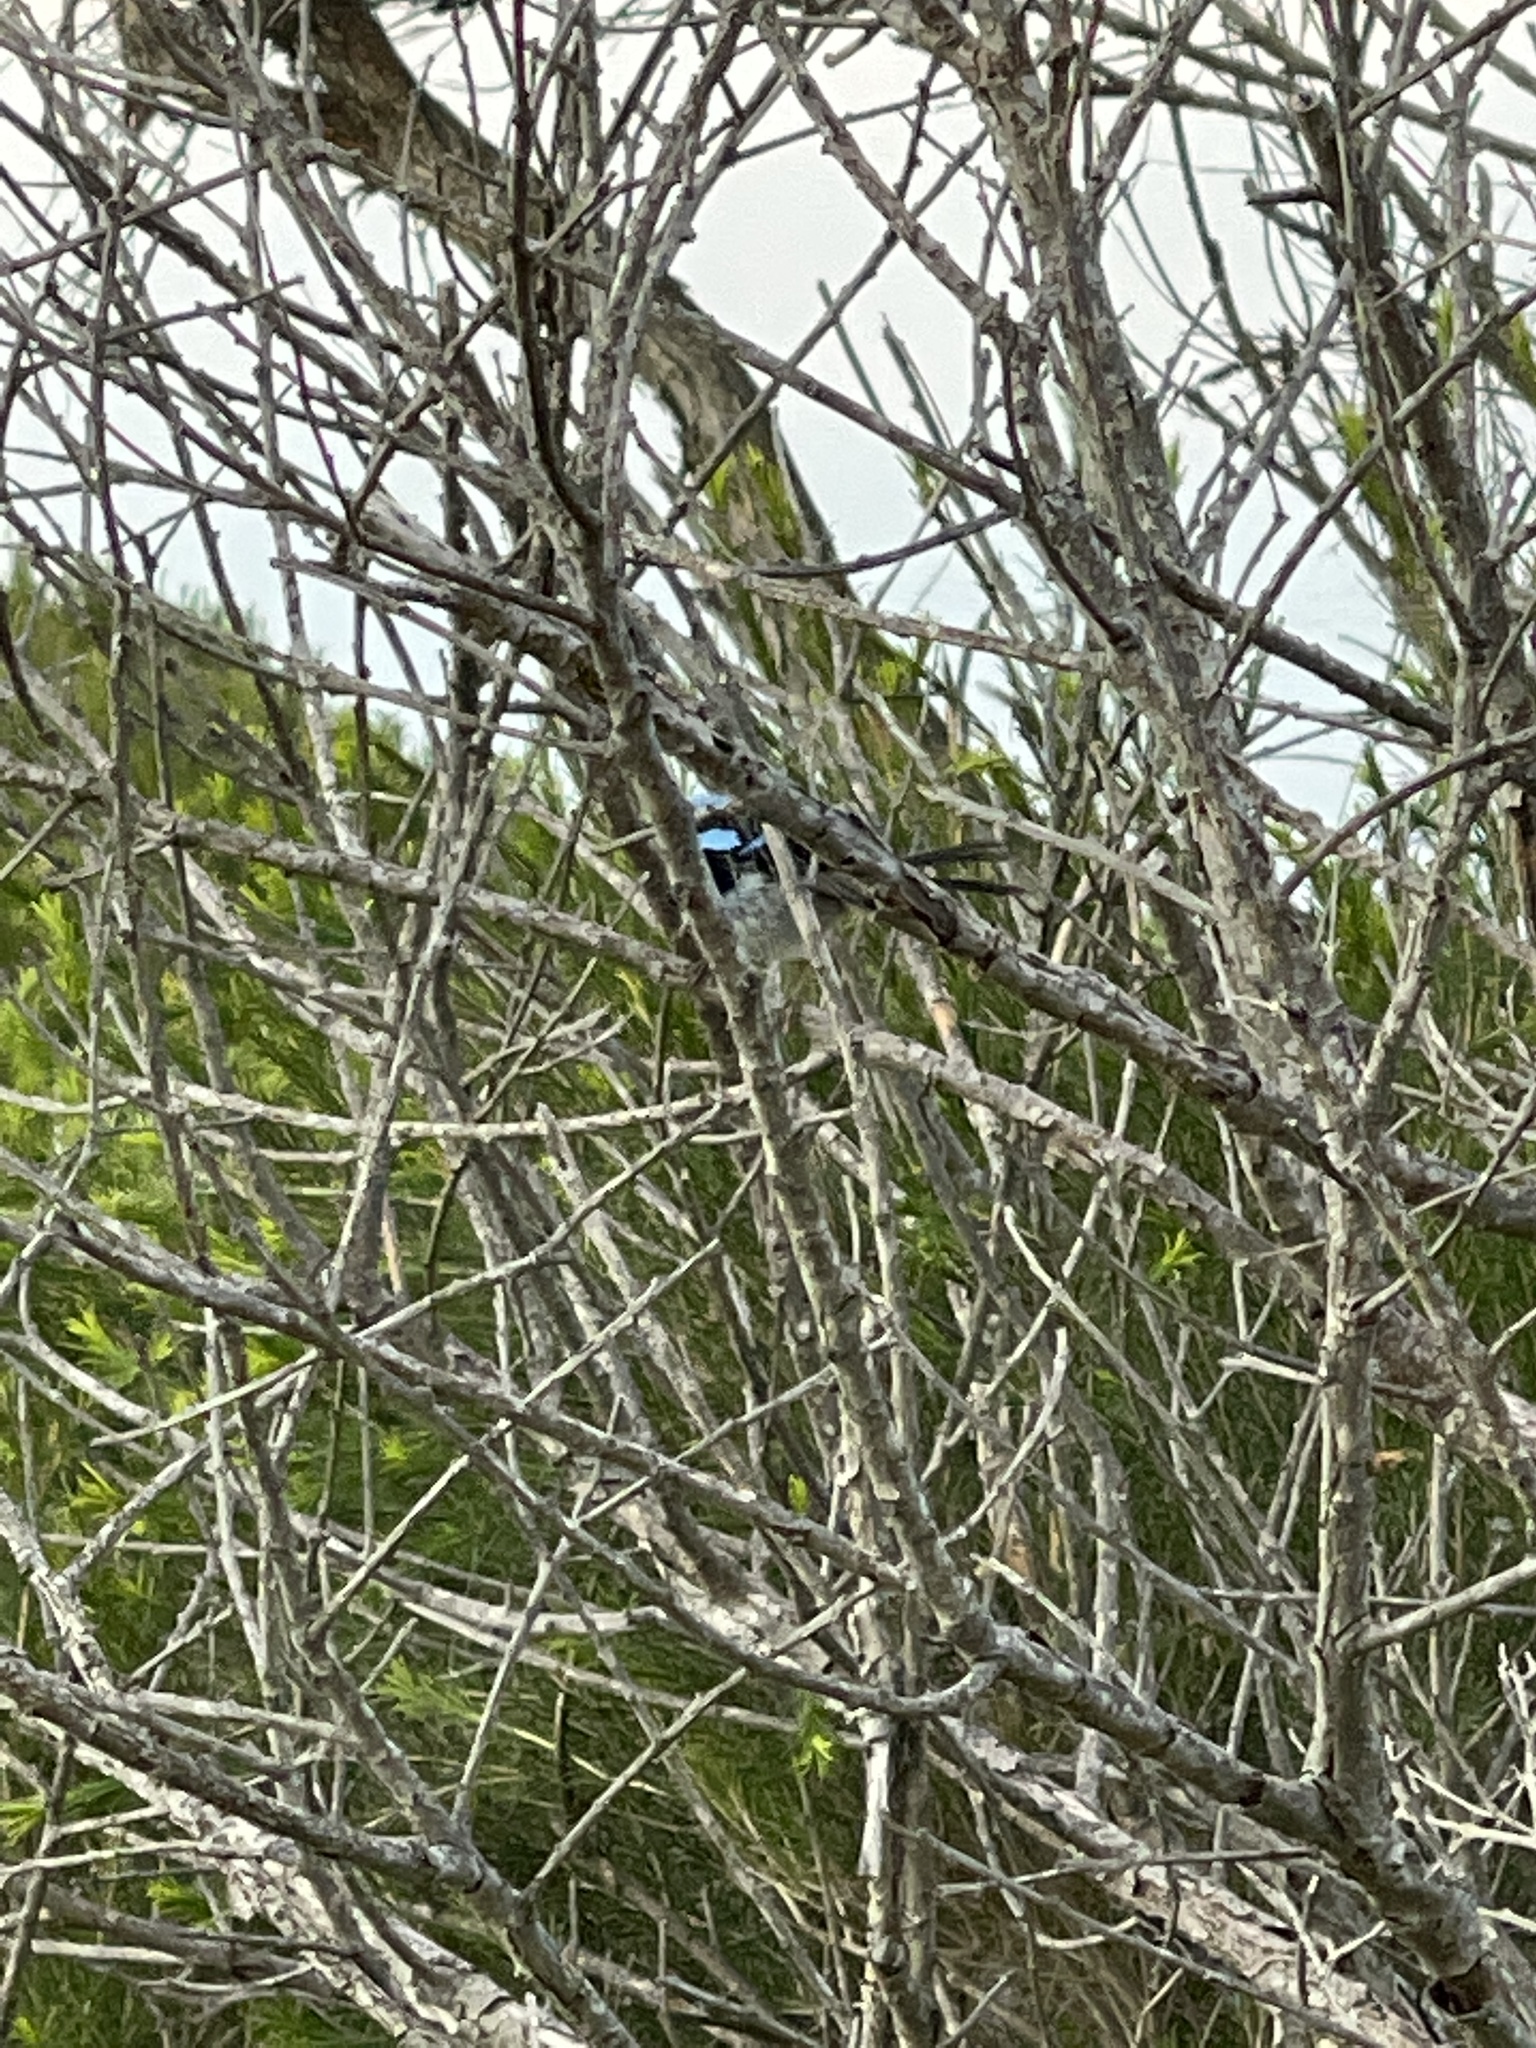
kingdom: Animalia
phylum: Chordata
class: Aves
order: Passeriformes
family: Maluridae
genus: Malurus
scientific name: Malurus cyaneus
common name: Superb fairywren
